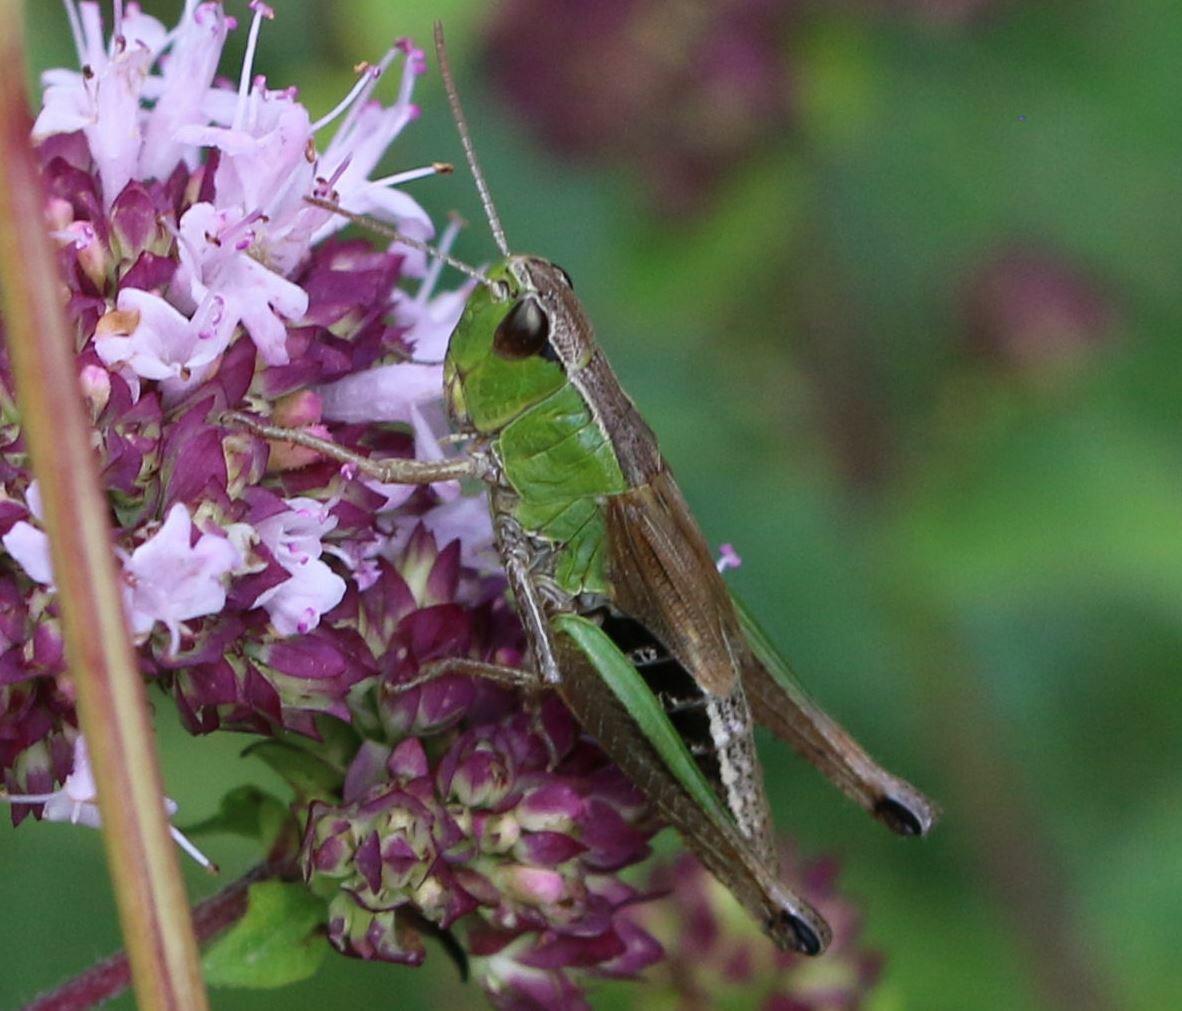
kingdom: Animalia
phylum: Arthropoda
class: Insecta
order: Orthoptera
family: Acrididae
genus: Pseudochorthippus
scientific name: Pseudochorthippus parallelus
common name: Meadow grasshopper
